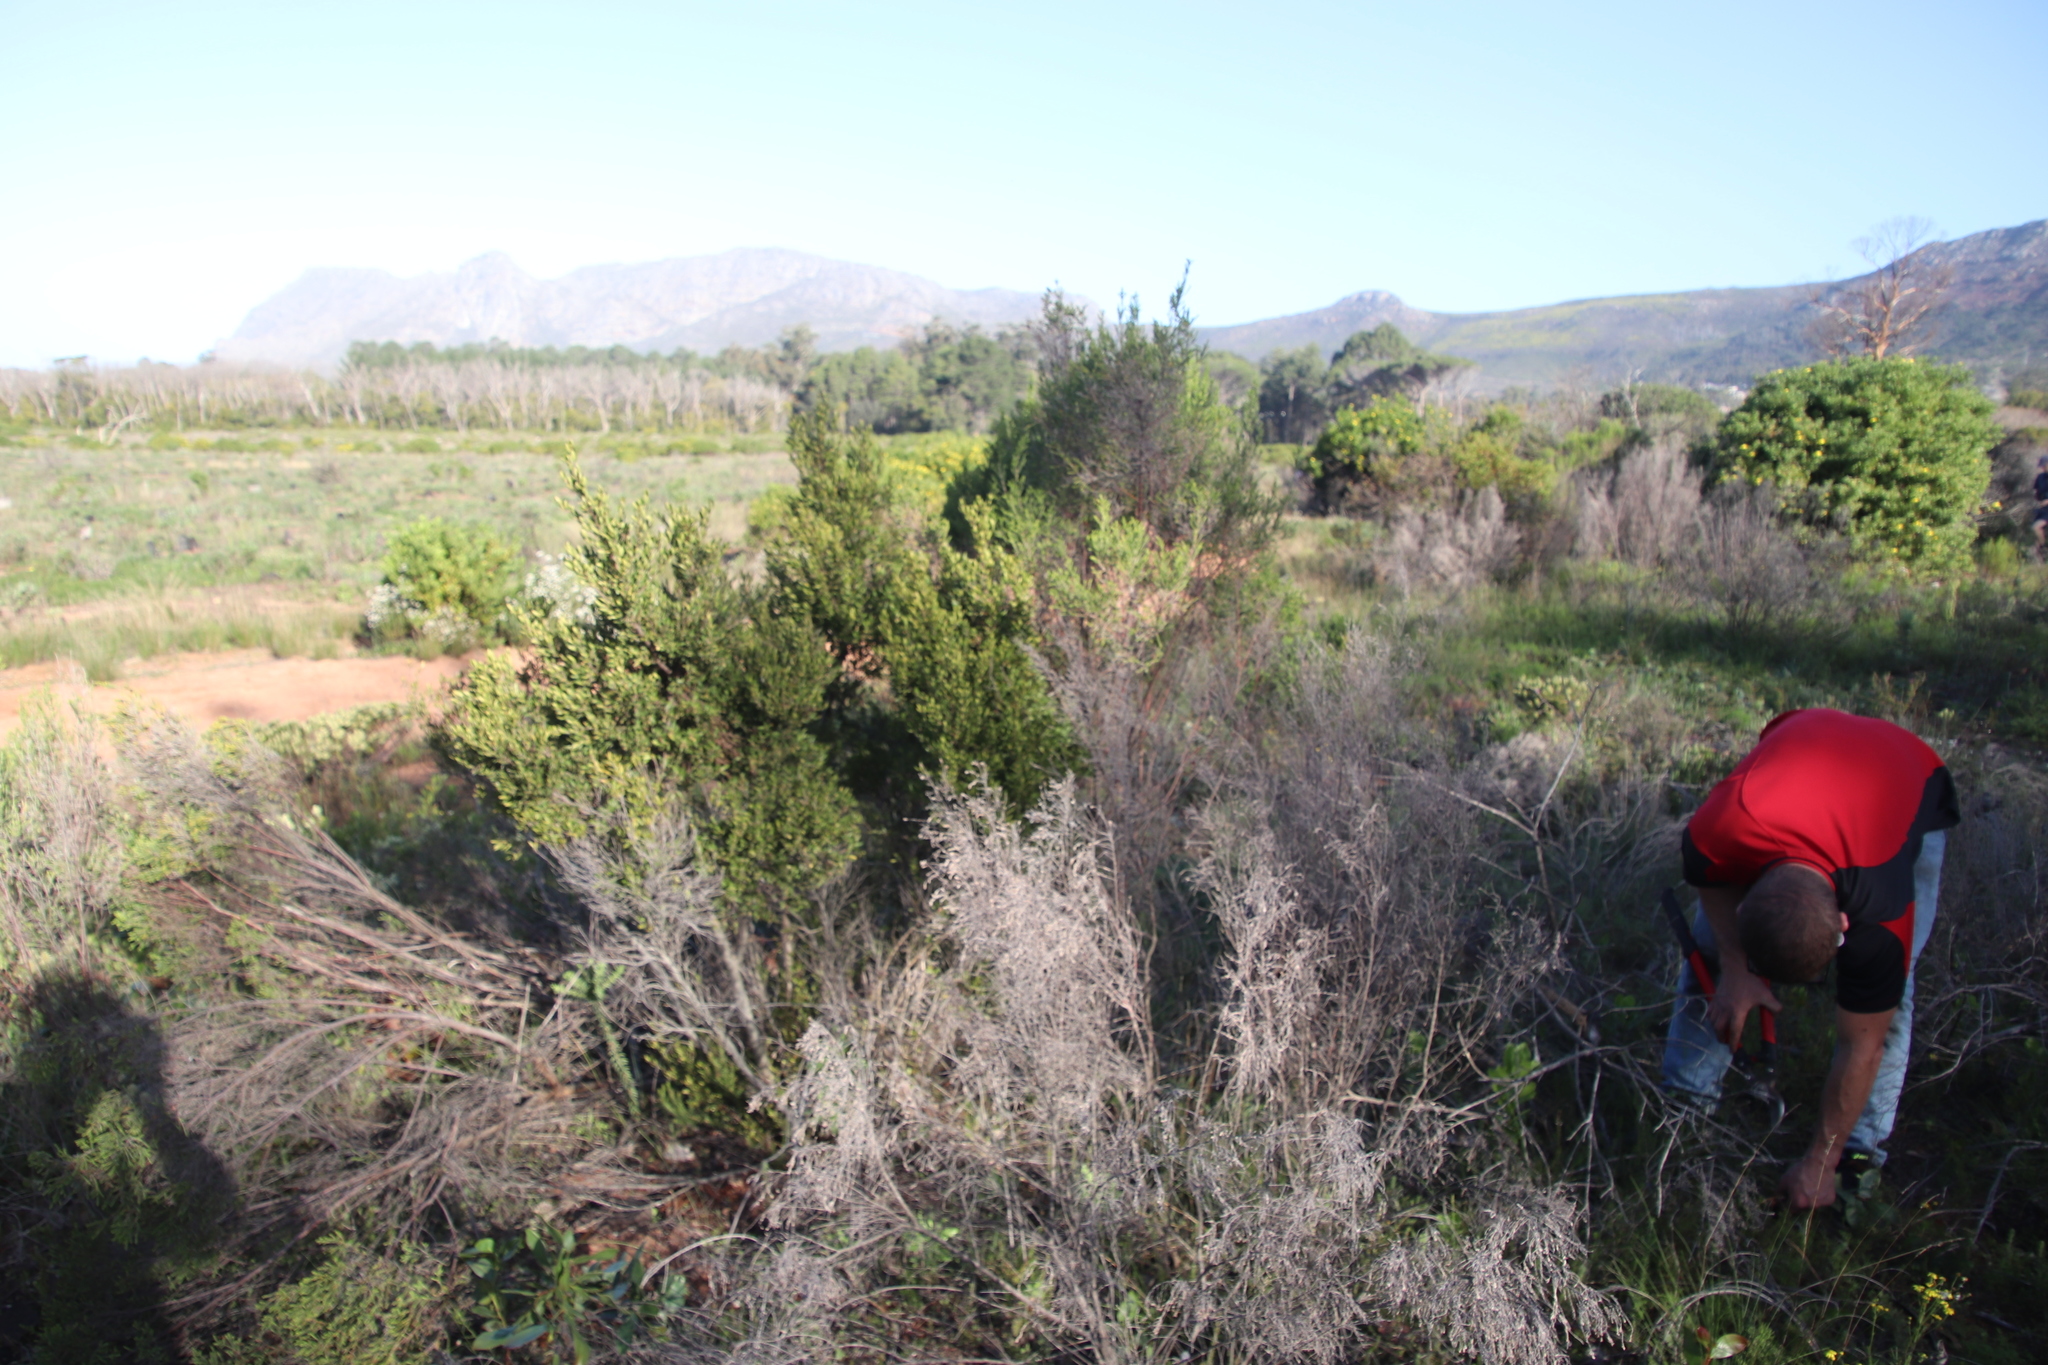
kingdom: Plantae
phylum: Tracheophyta
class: Magnoliopsida
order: Ericales
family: Ebenaceae
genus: Diospyros
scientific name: Diospyros glabra
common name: Fynbos star apple
